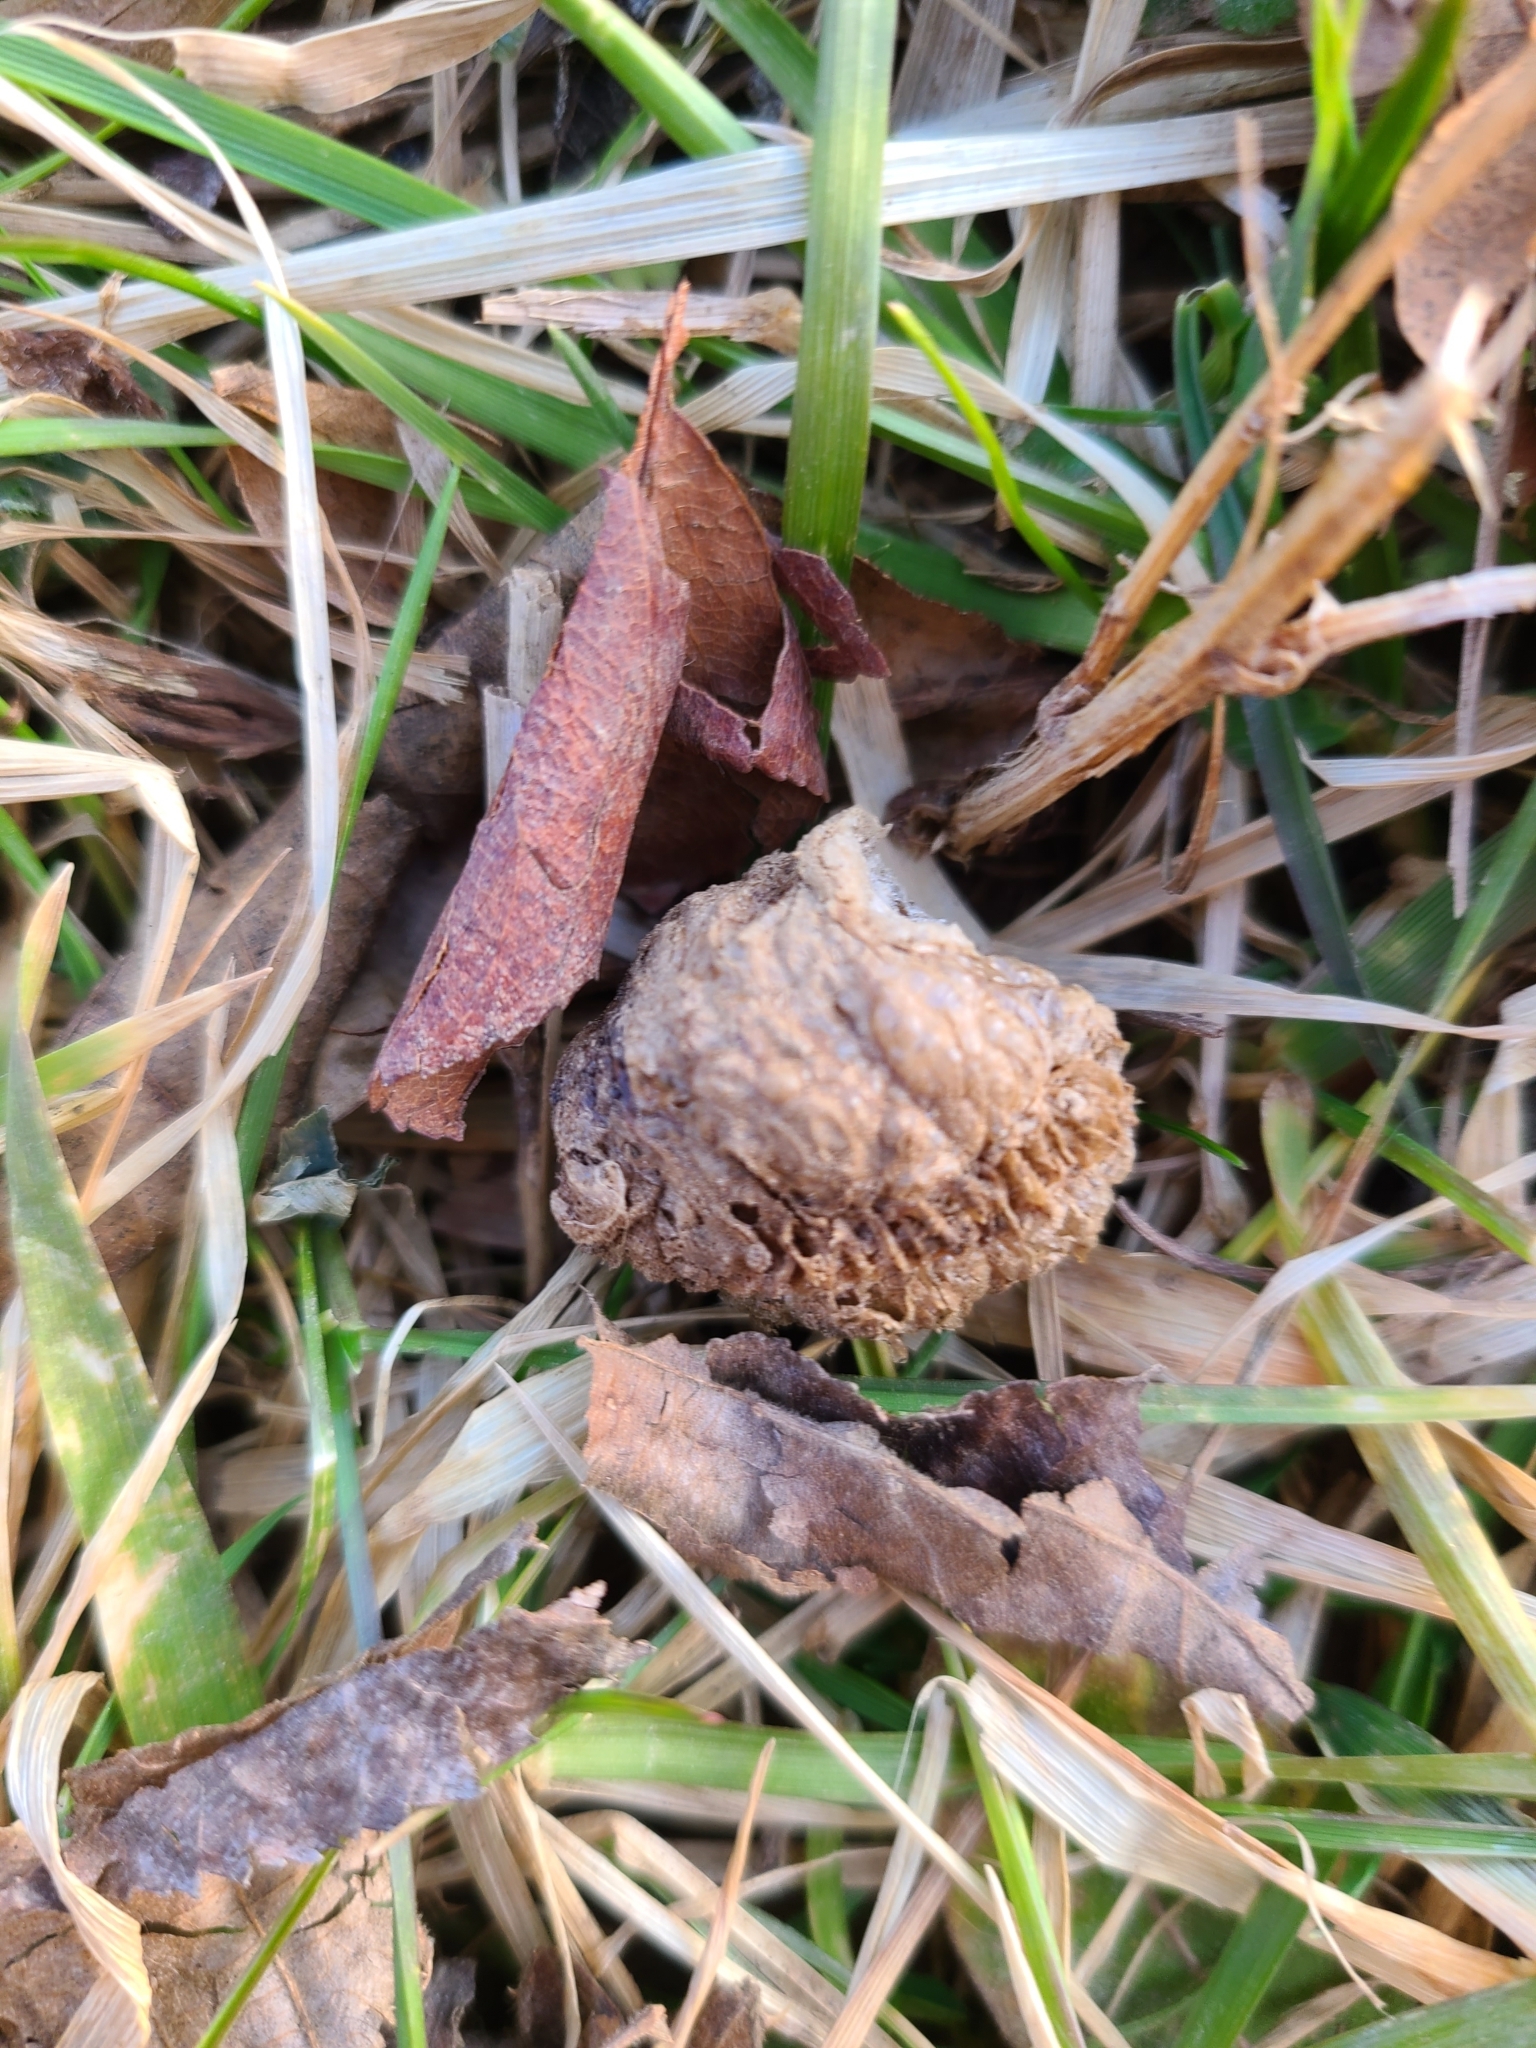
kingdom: Animalia
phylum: Arthropoda
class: Insecta
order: Mantodea
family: Mantidae
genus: Tenodera
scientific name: Tenodera sinensis
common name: Chinese mantis
